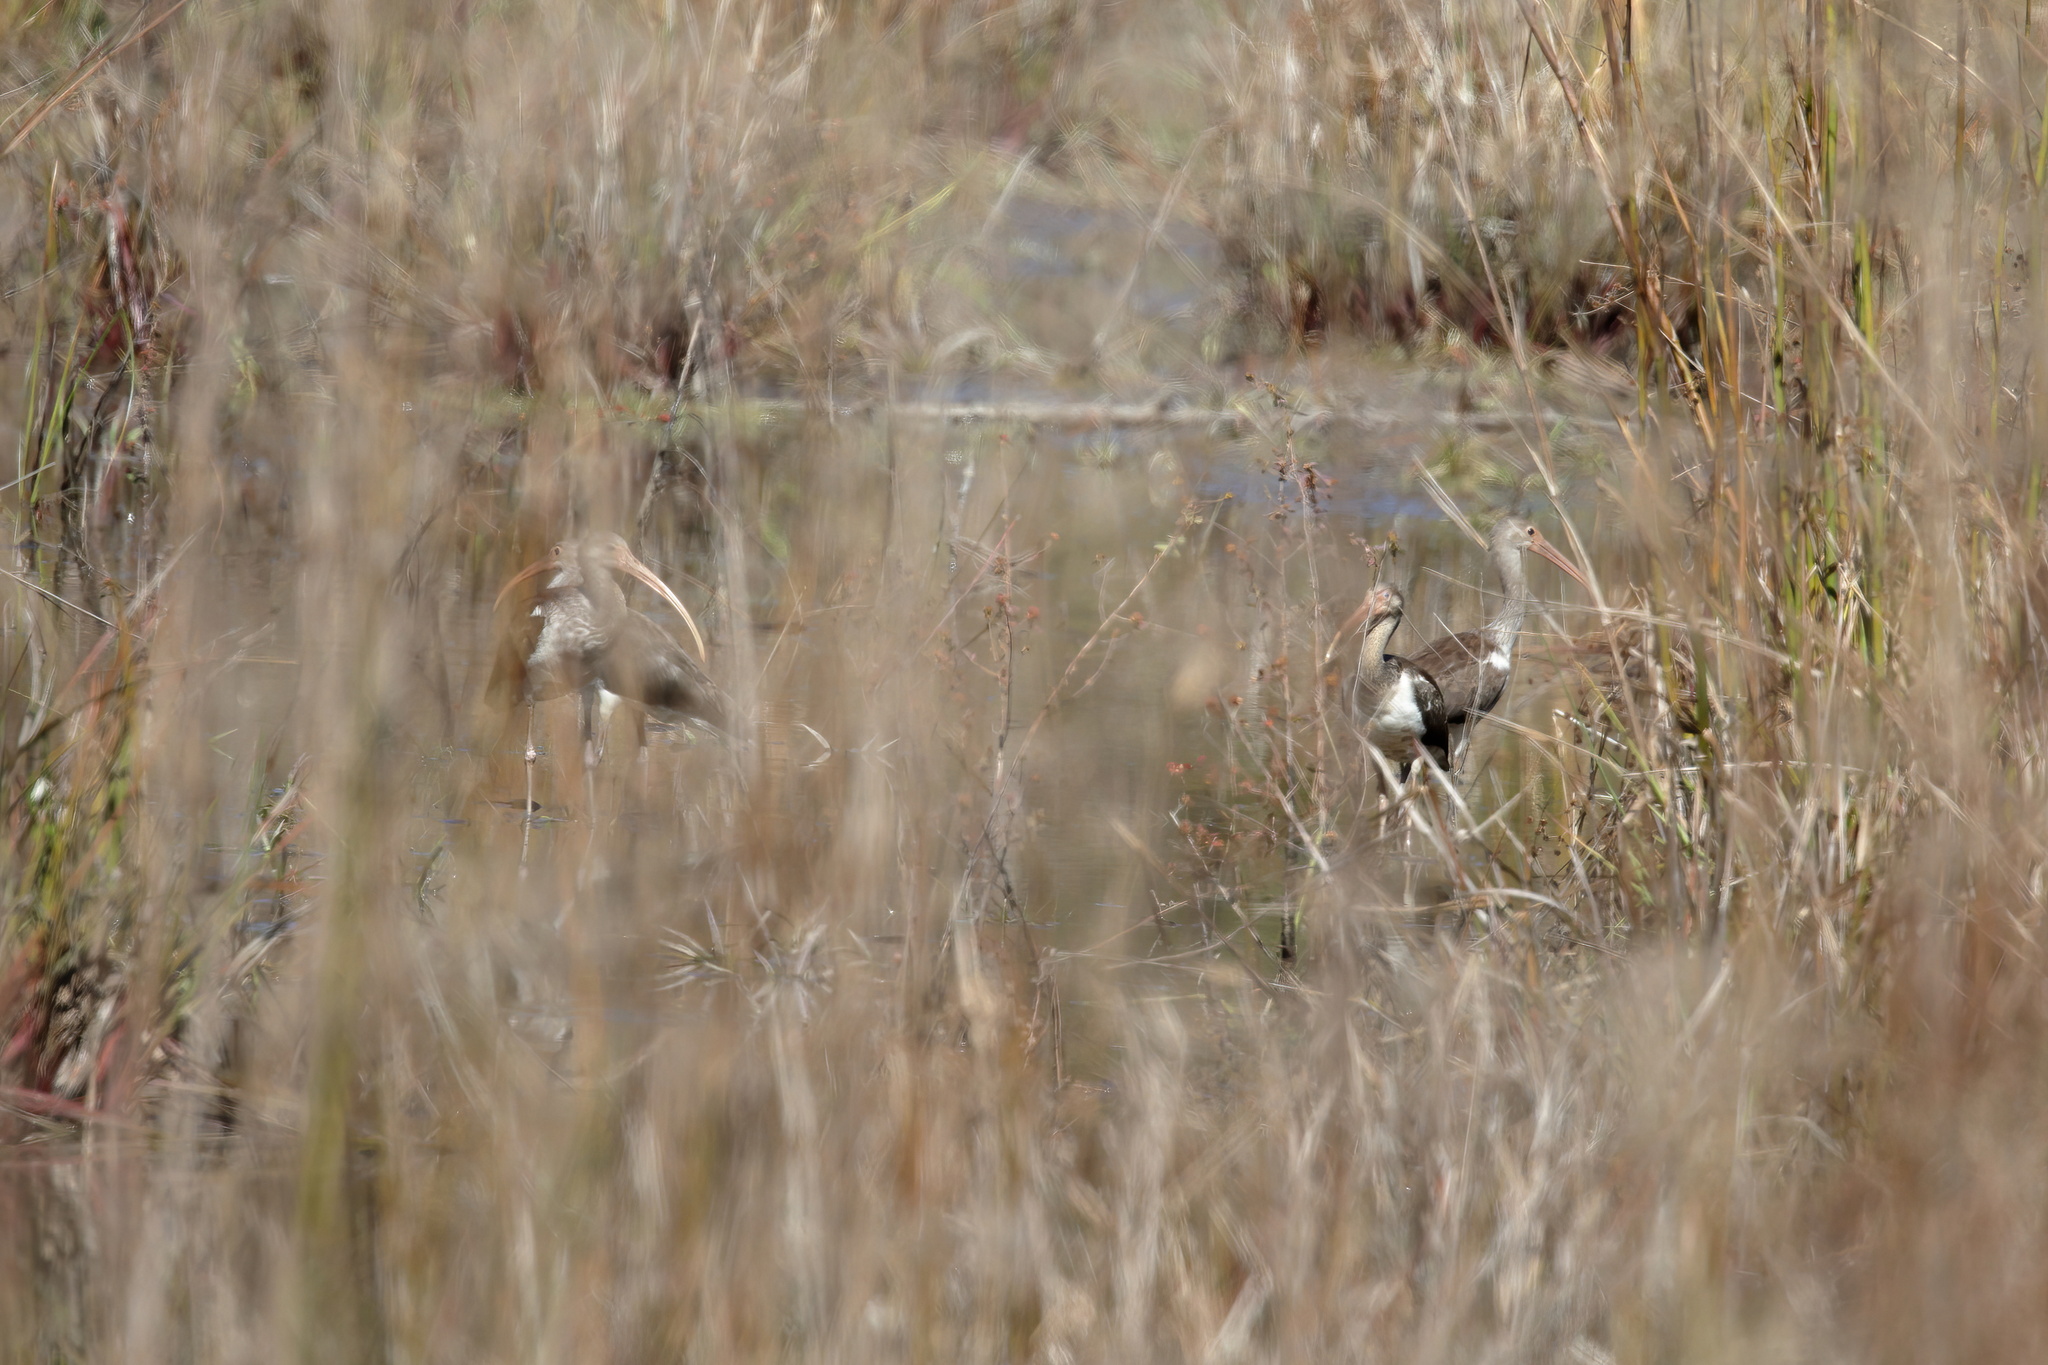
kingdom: Animalia
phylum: Chordata
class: Aves
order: Pelecaniformes
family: Threskiornithidae
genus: Eudocimus
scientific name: Eudocimus albus
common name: White ibis
